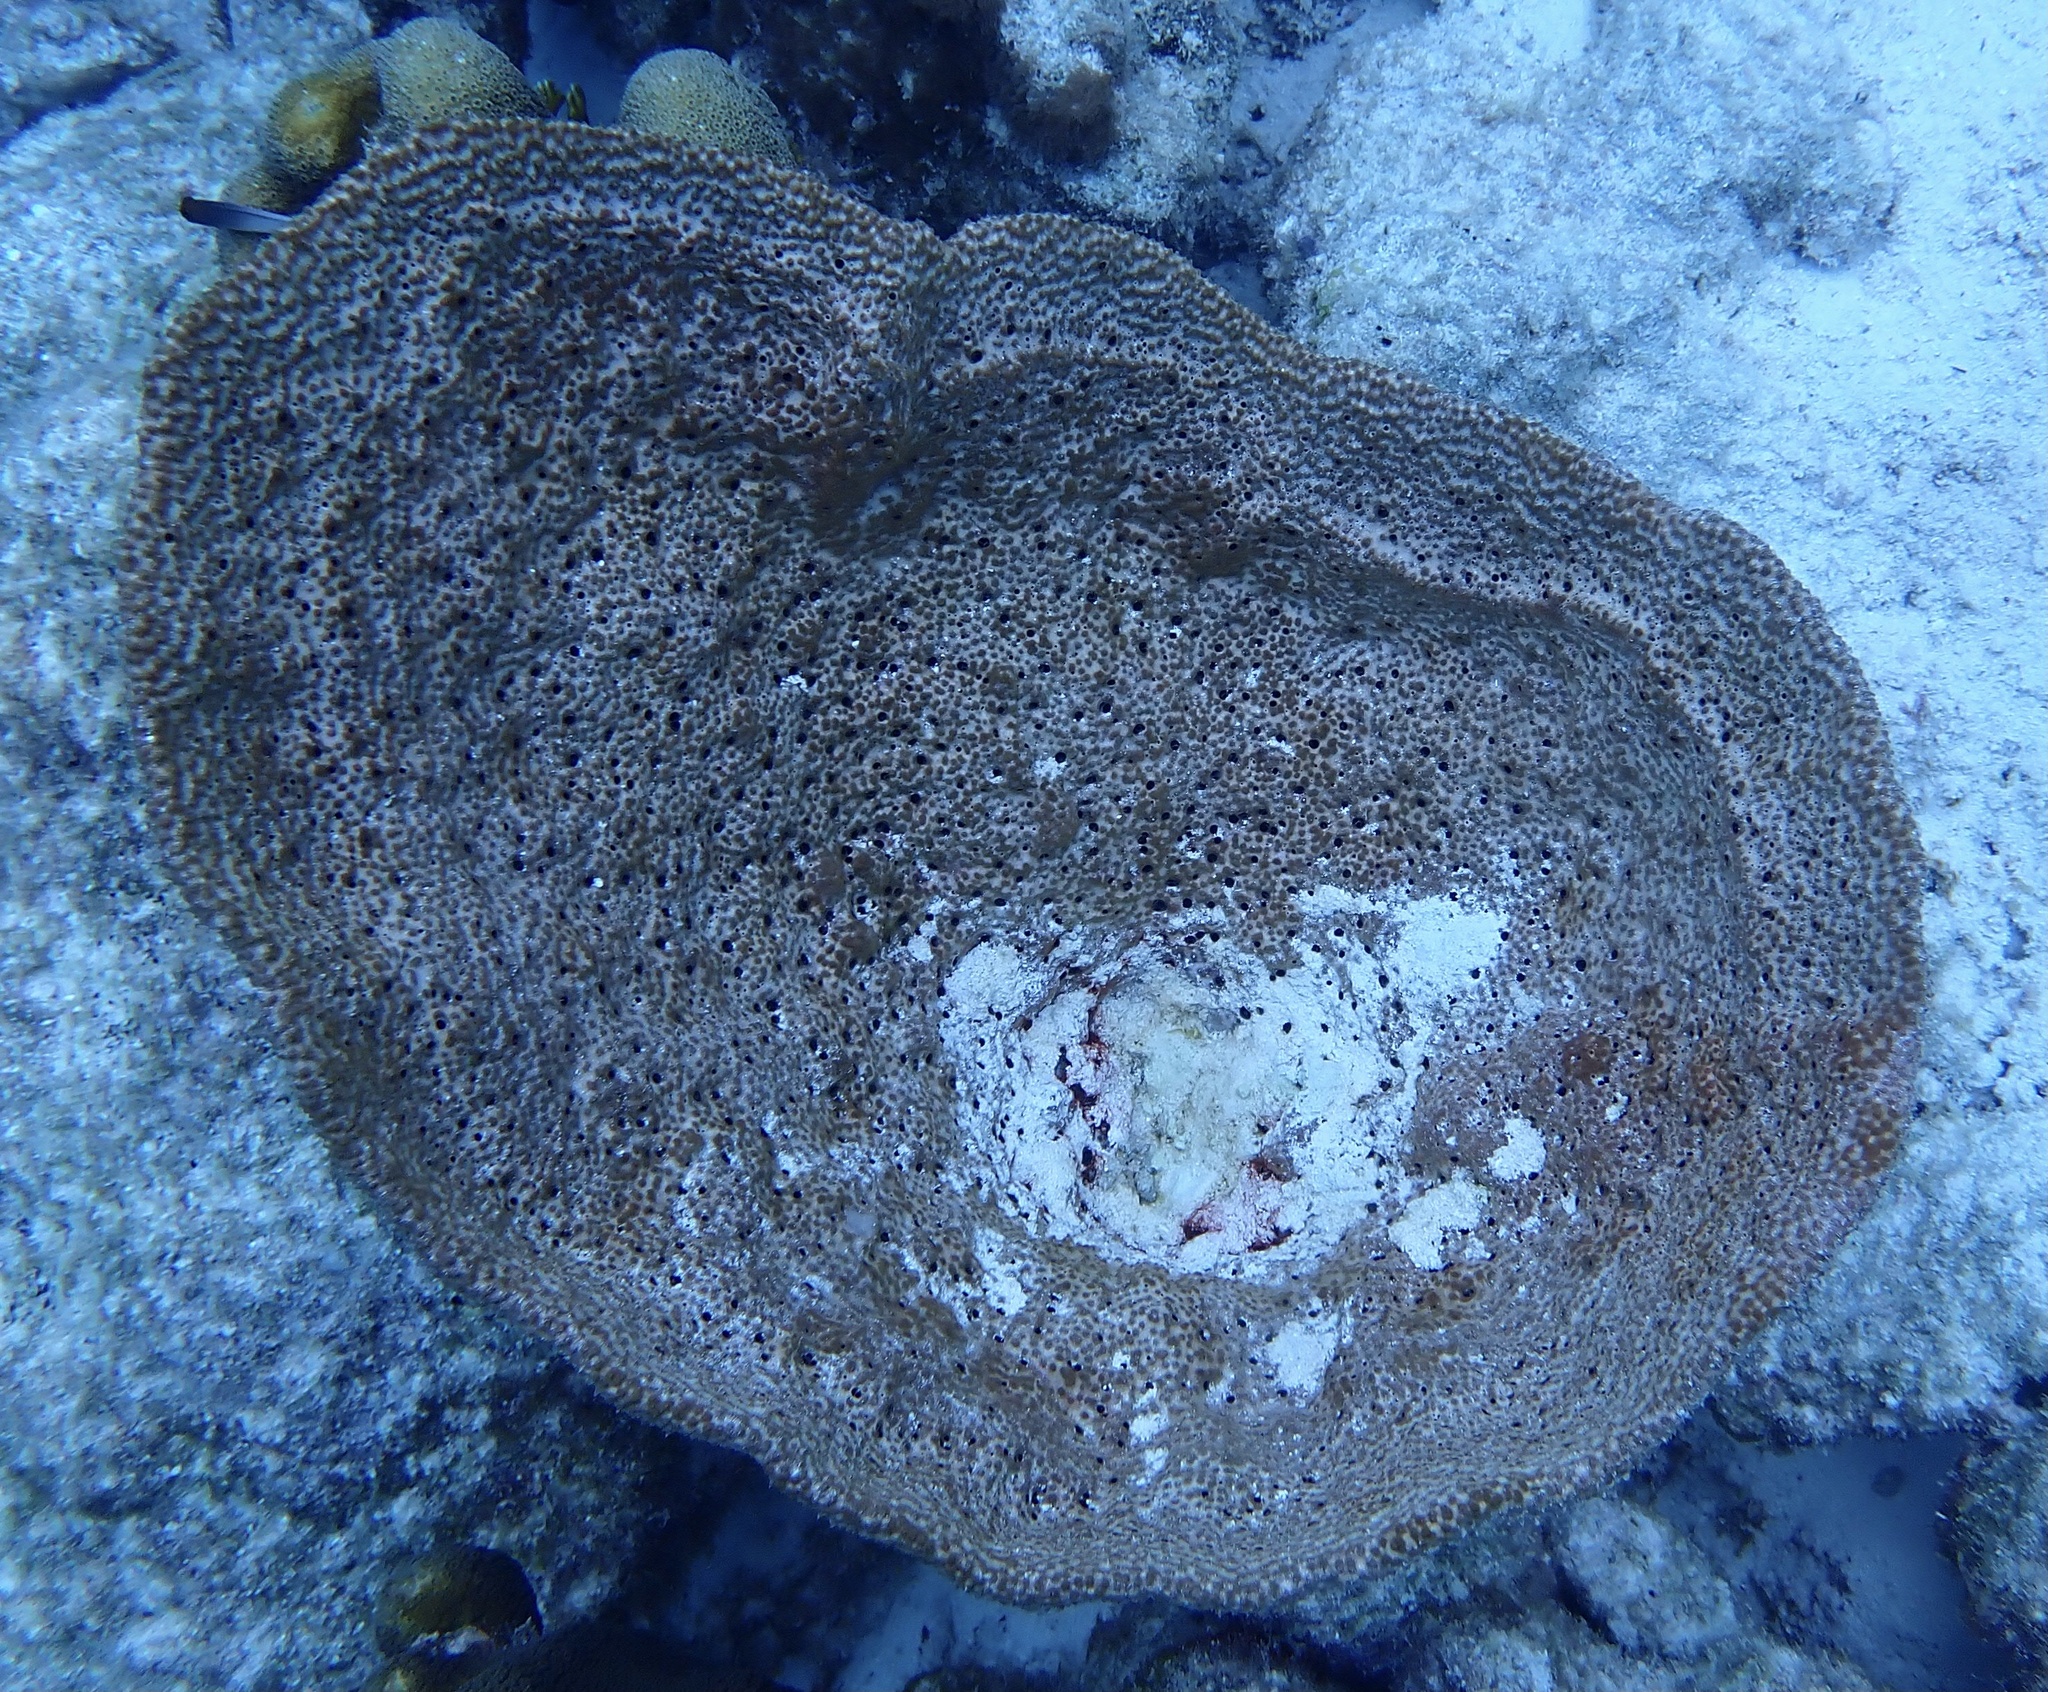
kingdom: Animalia
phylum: Porifera
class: Demospongiae
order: Dictyoceratida
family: Irciniidae
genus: Ircinia
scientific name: Ircinia campana
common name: Vase sponge
